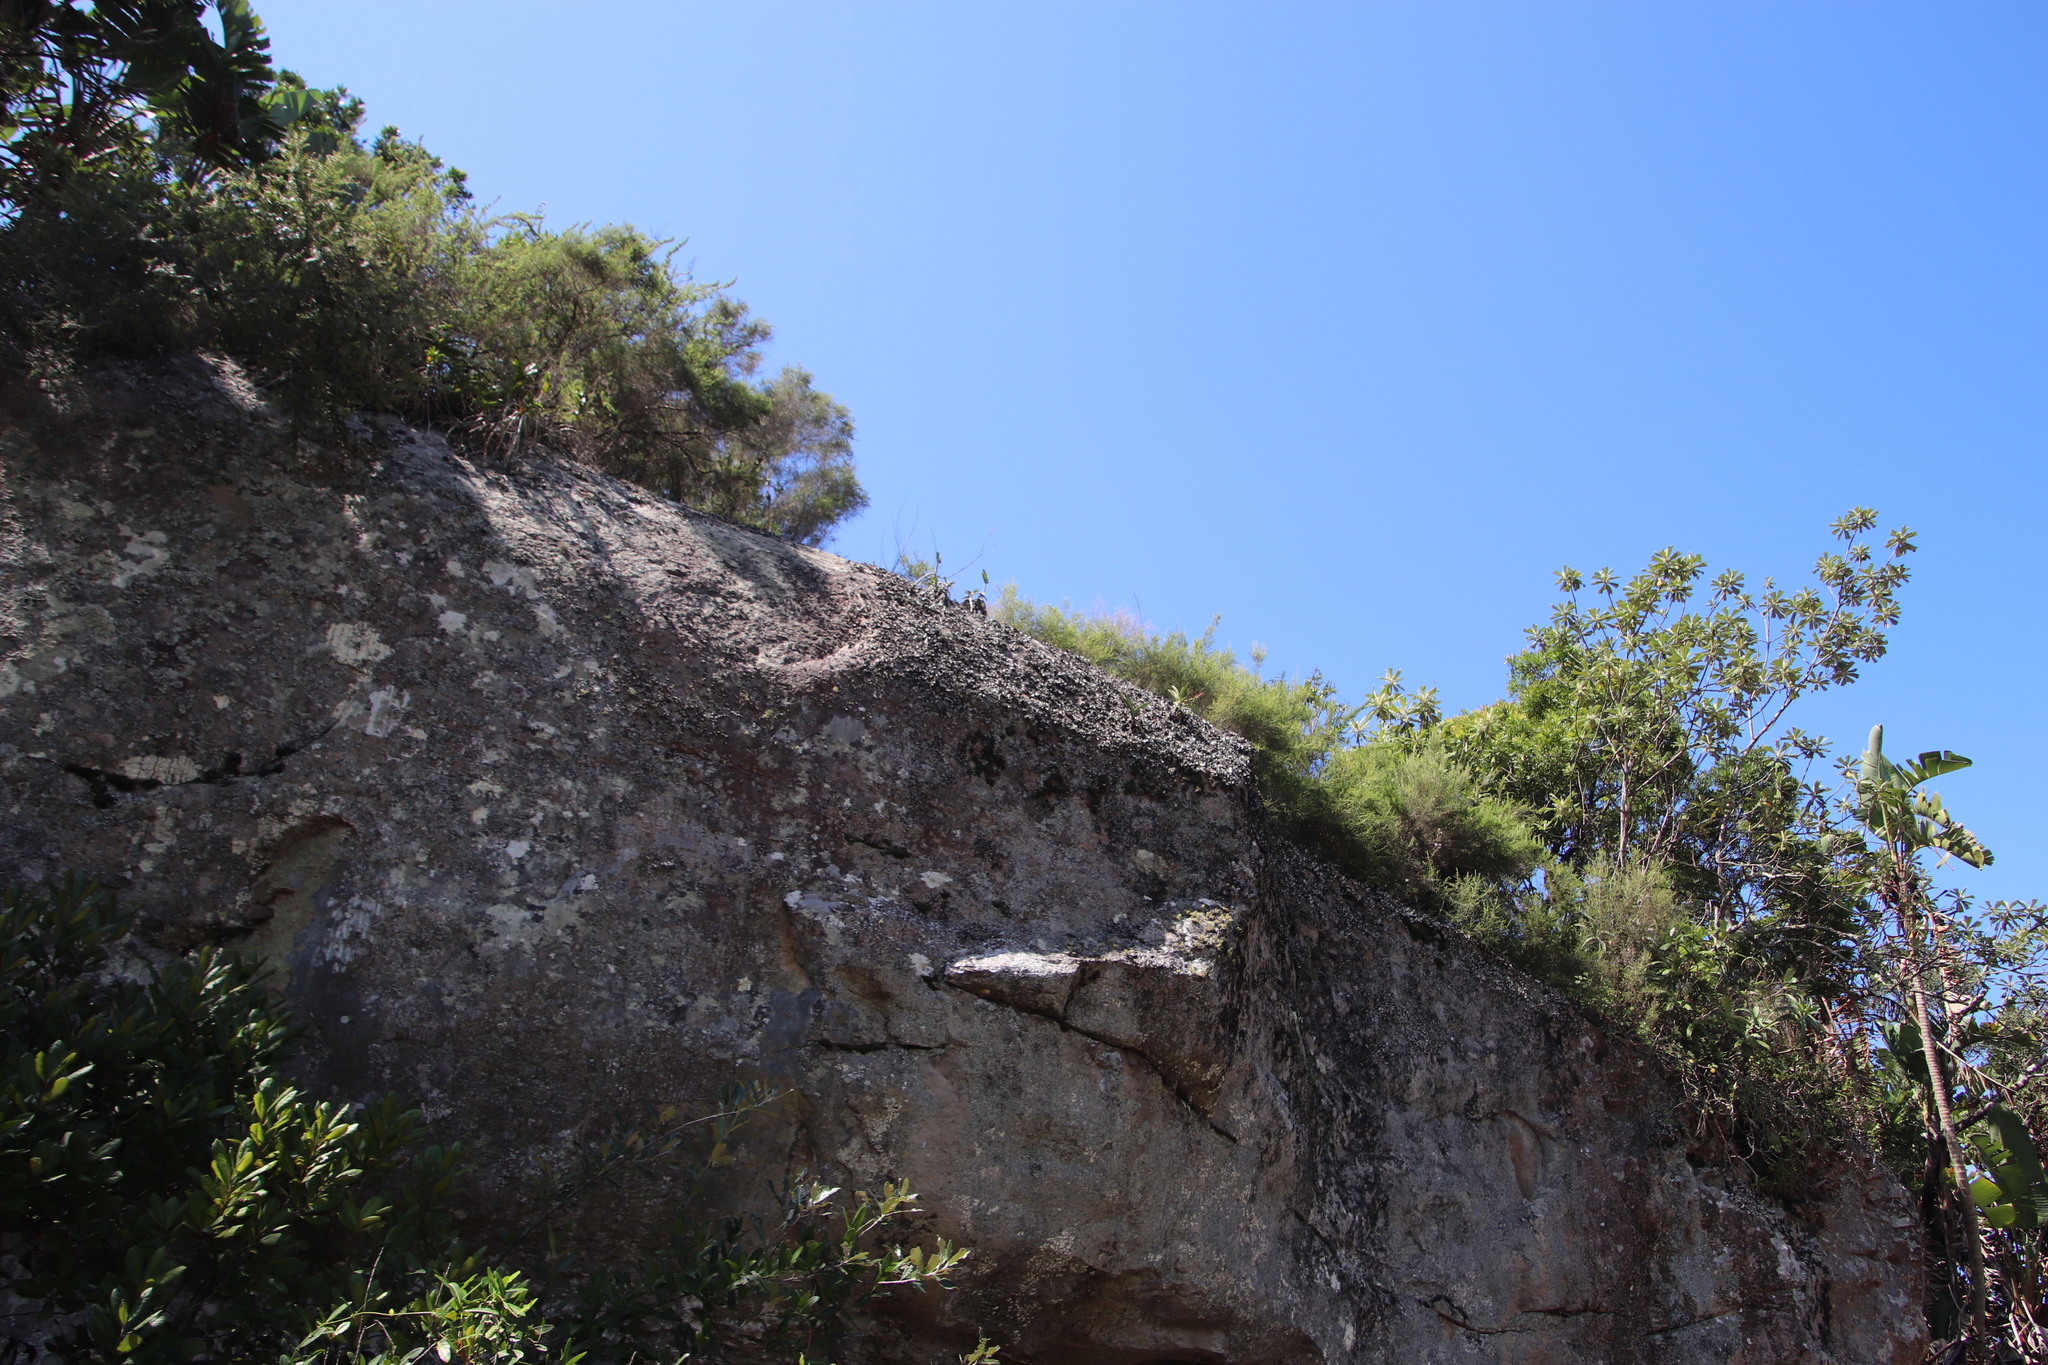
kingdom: Plantae
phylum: Tracheophyta
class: Liliopsida
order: Asparagales
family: Orchidaceae
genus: Rangaeris
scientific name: Rangaeris muscicola
